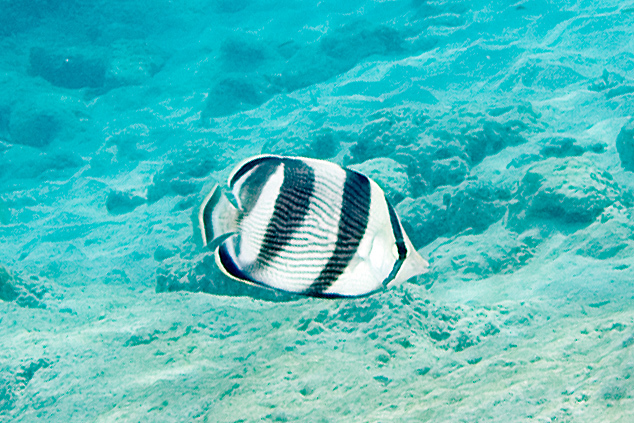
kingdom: Animalia
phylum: Chordata
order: Perciformes
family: Chaetodontidae
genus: Chaetodon
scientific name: Chaetodon striatus
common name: Banded butterflyfish
